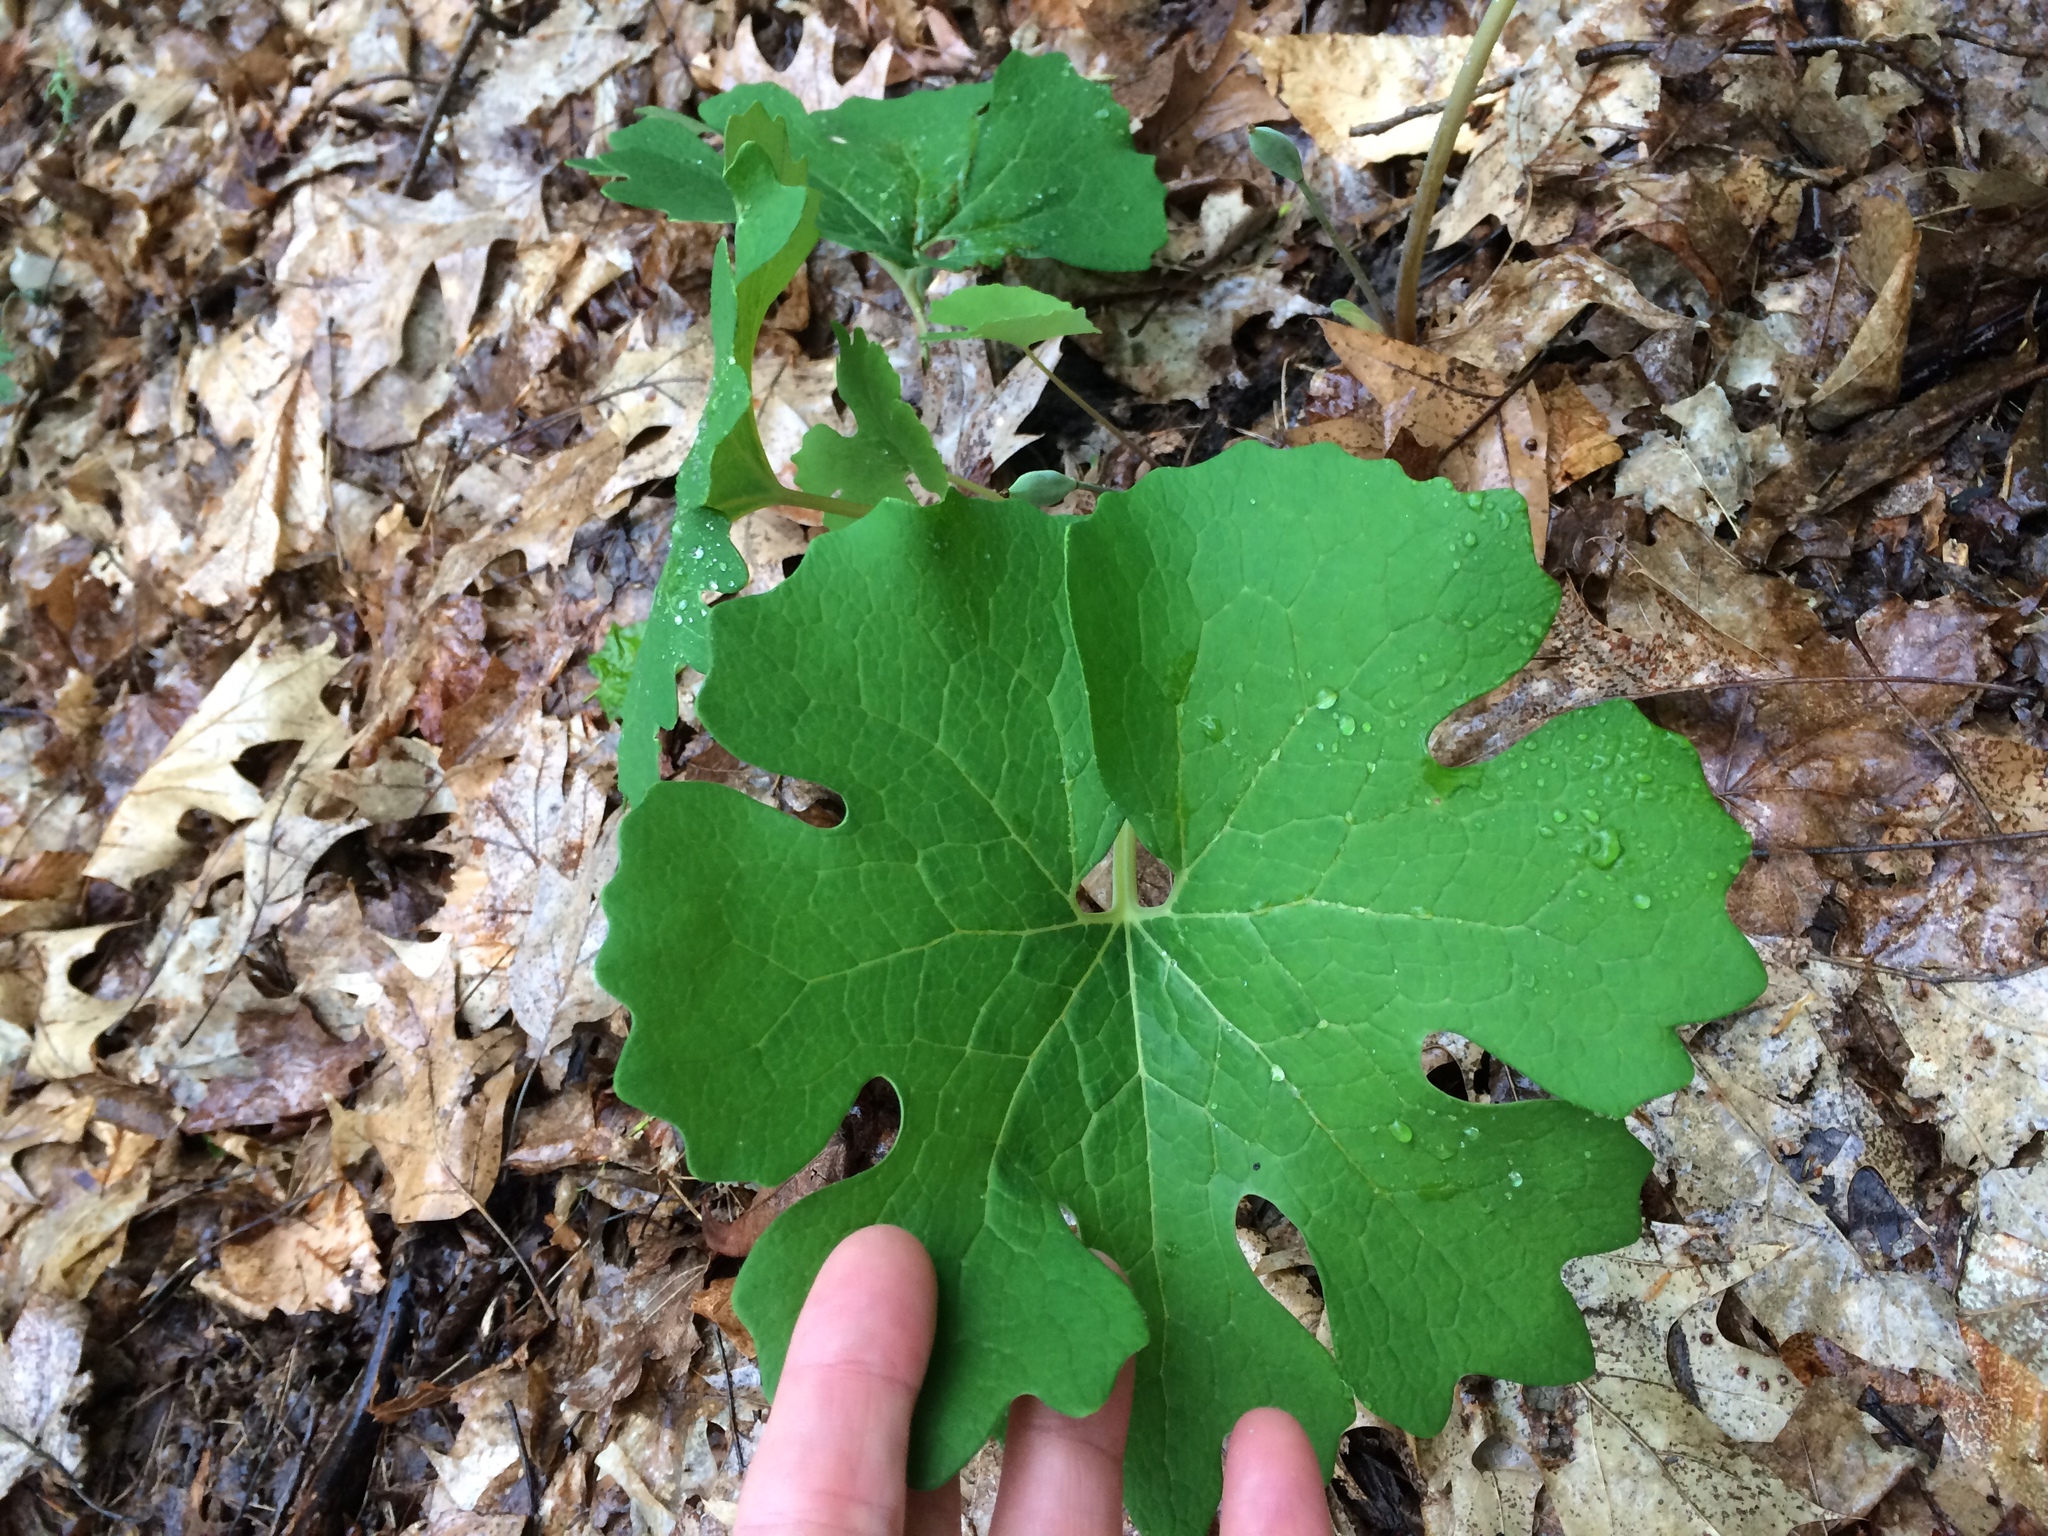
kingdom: Plantae
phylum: Tracheophyta
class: Magnoliopsida
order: Ranunculales
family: Papaveraceae
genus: Sanguinaria
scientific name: Sanguinaria canadensis
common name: Bloodroot
